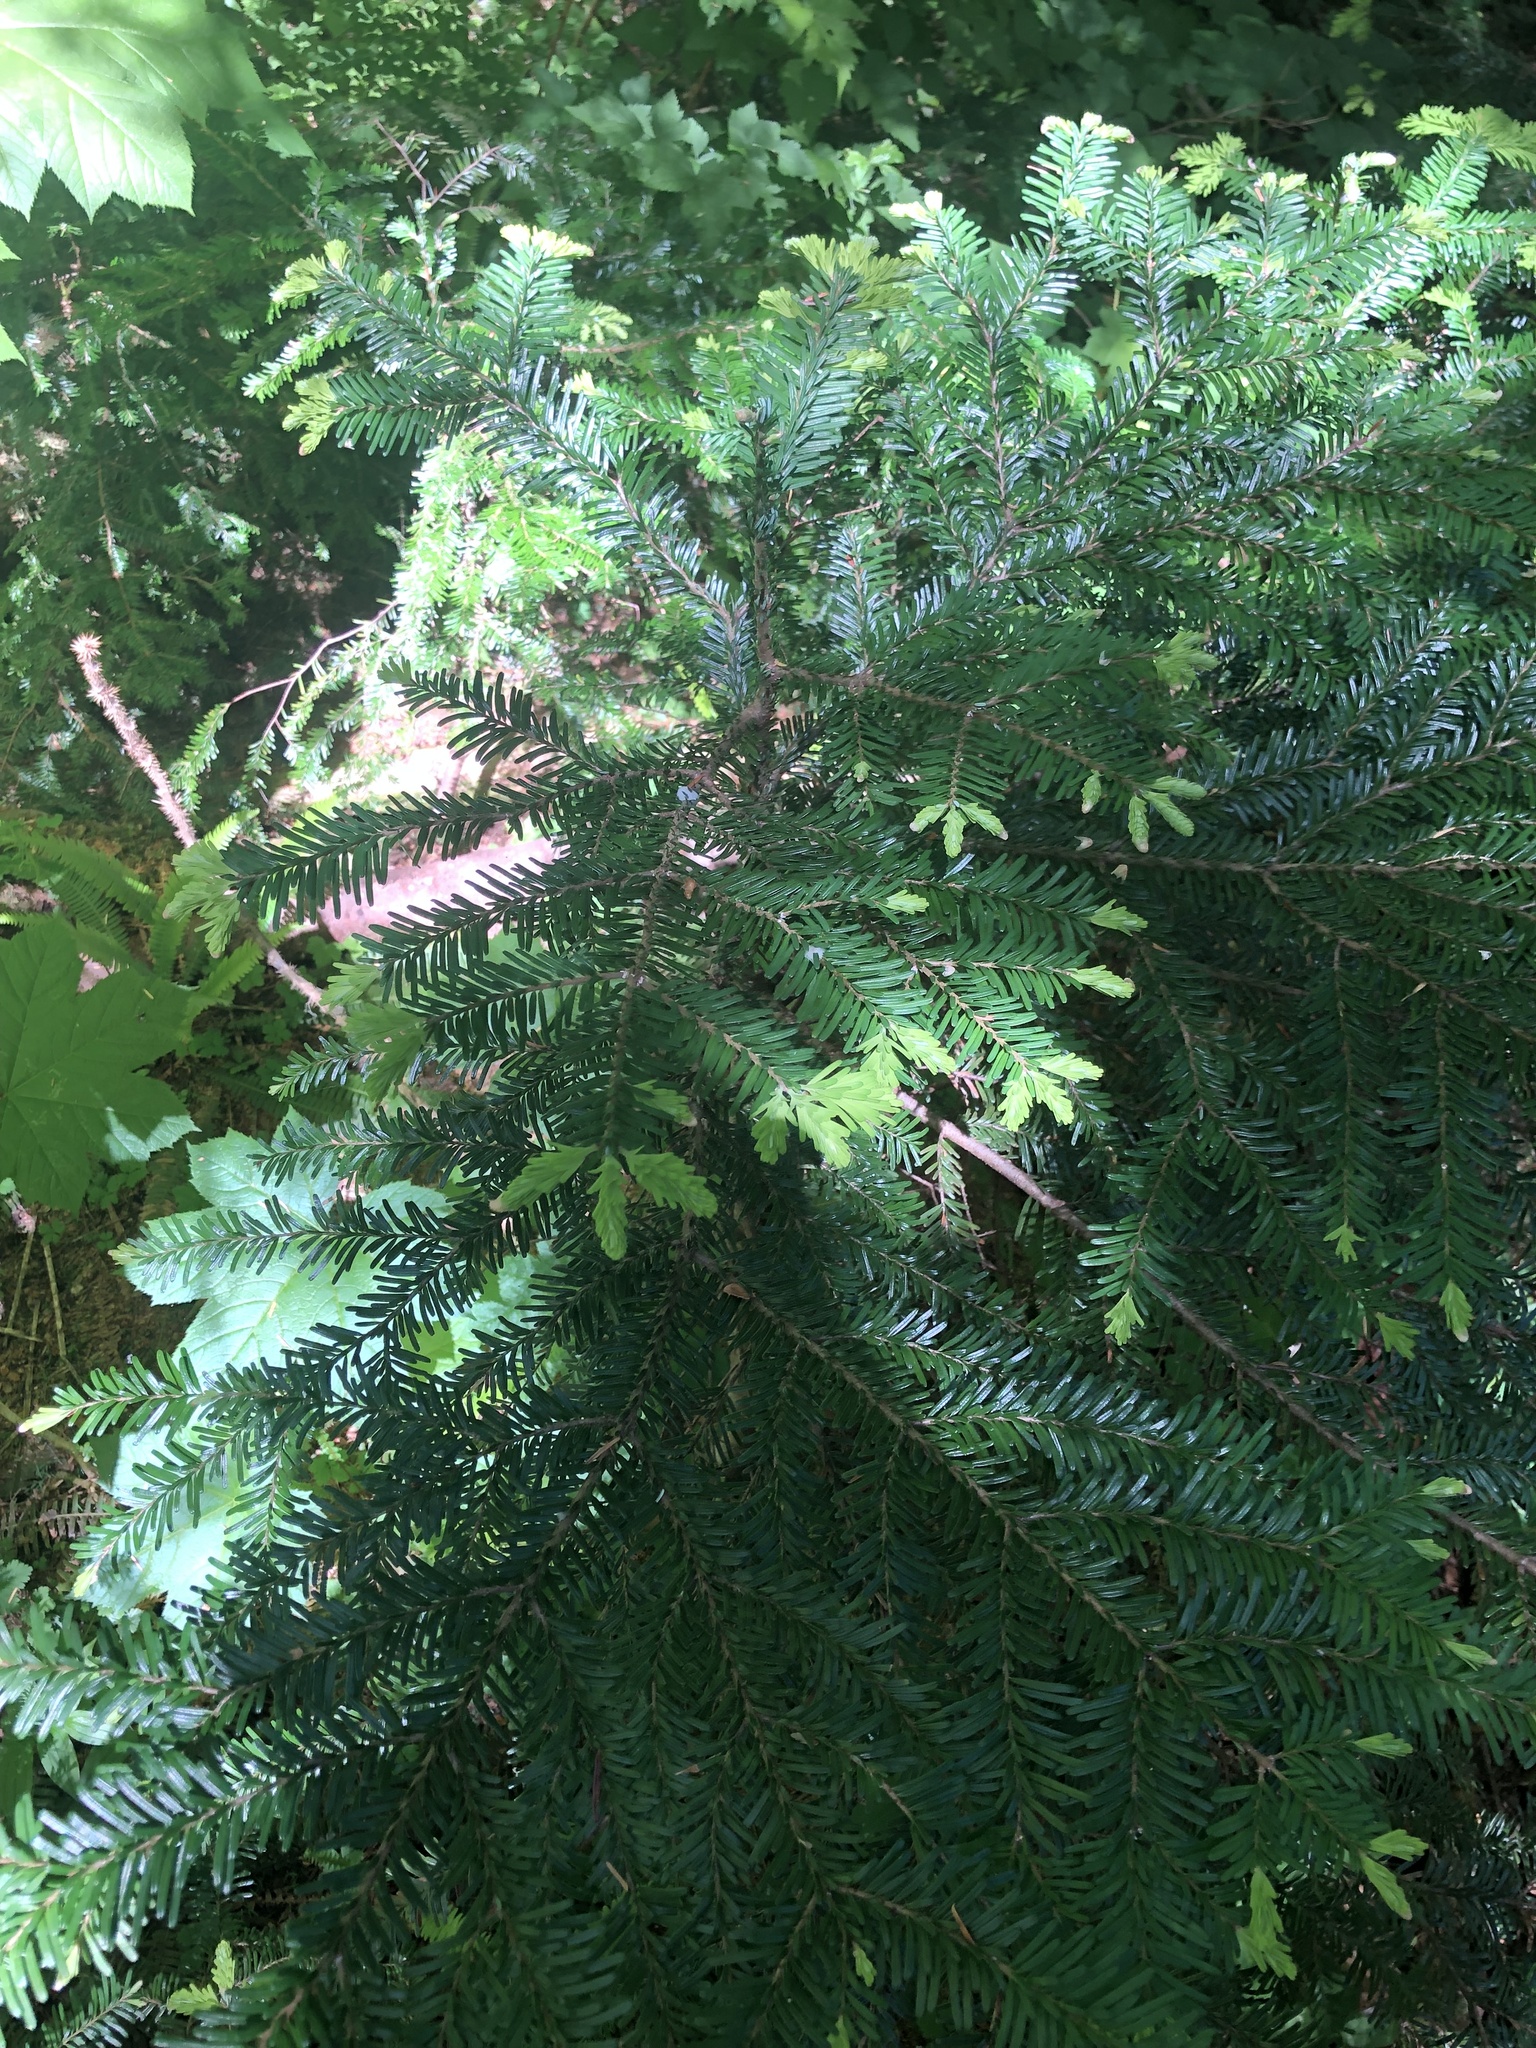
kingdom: Plantae
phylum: Tracheophyta
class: Pinopsida
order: Pinales
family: Pinaceae
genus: Abies
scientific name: Abies amabilis
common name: Pacific silver fir
